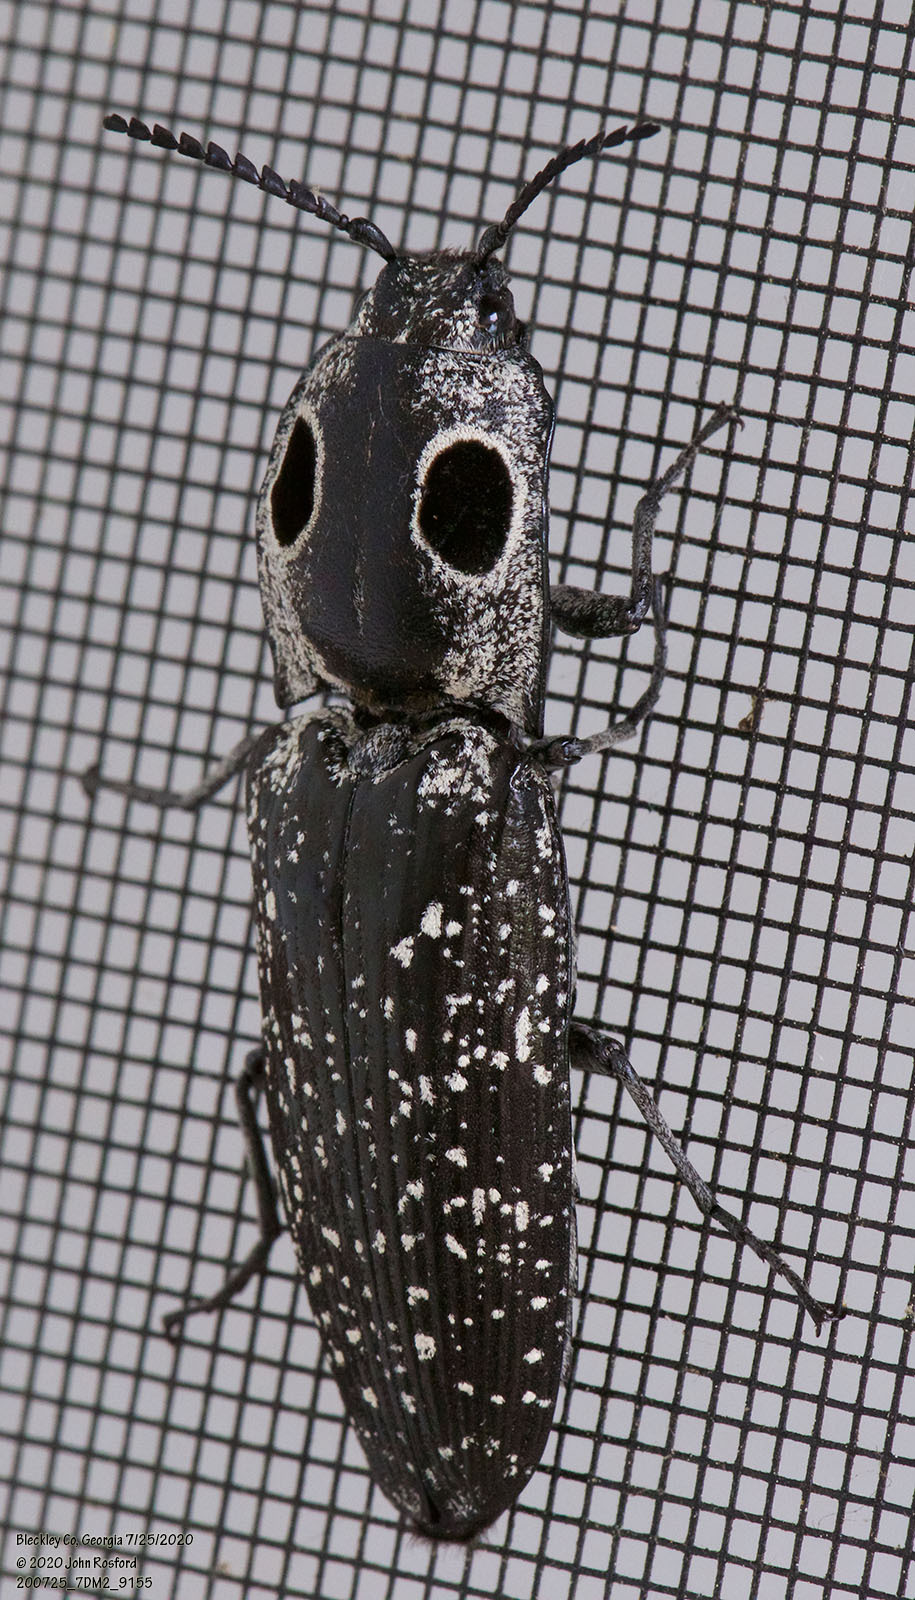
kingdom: Animalia
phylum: Arthropoda
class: Insecta
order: Coleoptera
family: Elateridae
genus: Alaus
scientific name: Alaus oculatus
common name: Eastern eyed click beetle
